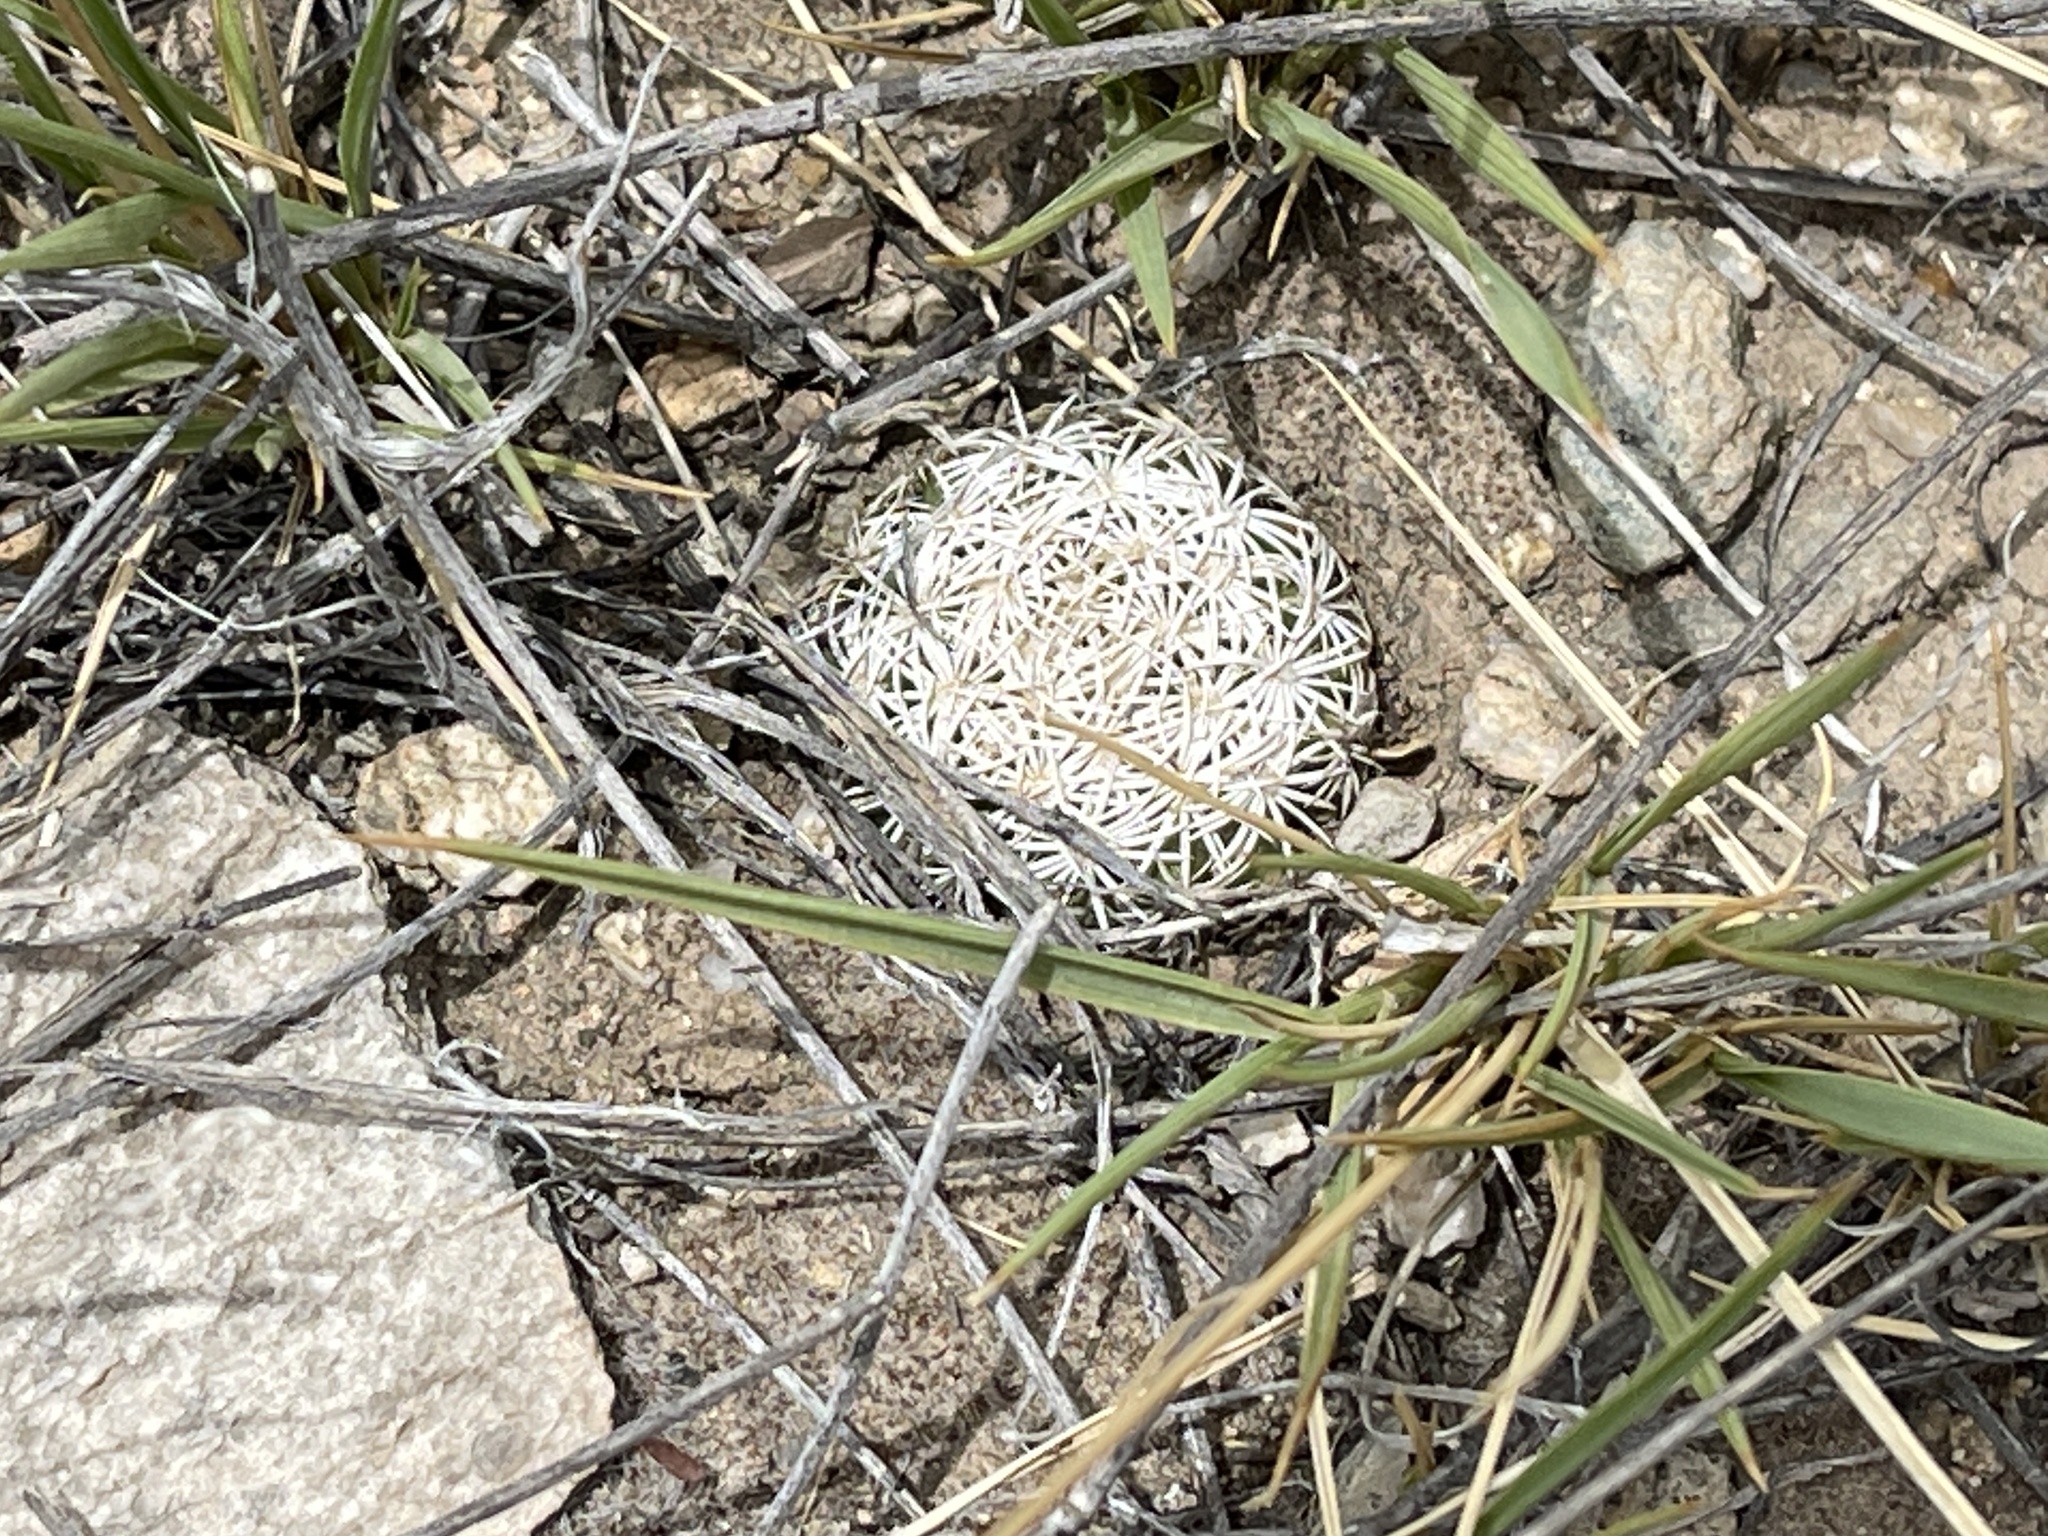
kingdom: Plantae
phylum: Tracheophyta
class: Magnoliopsida
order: Caryophyllales
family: Cactaceae
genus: Sclerocactus
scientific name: Sclerocactus johnsonii
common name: Eight-spine fishhook cactus
